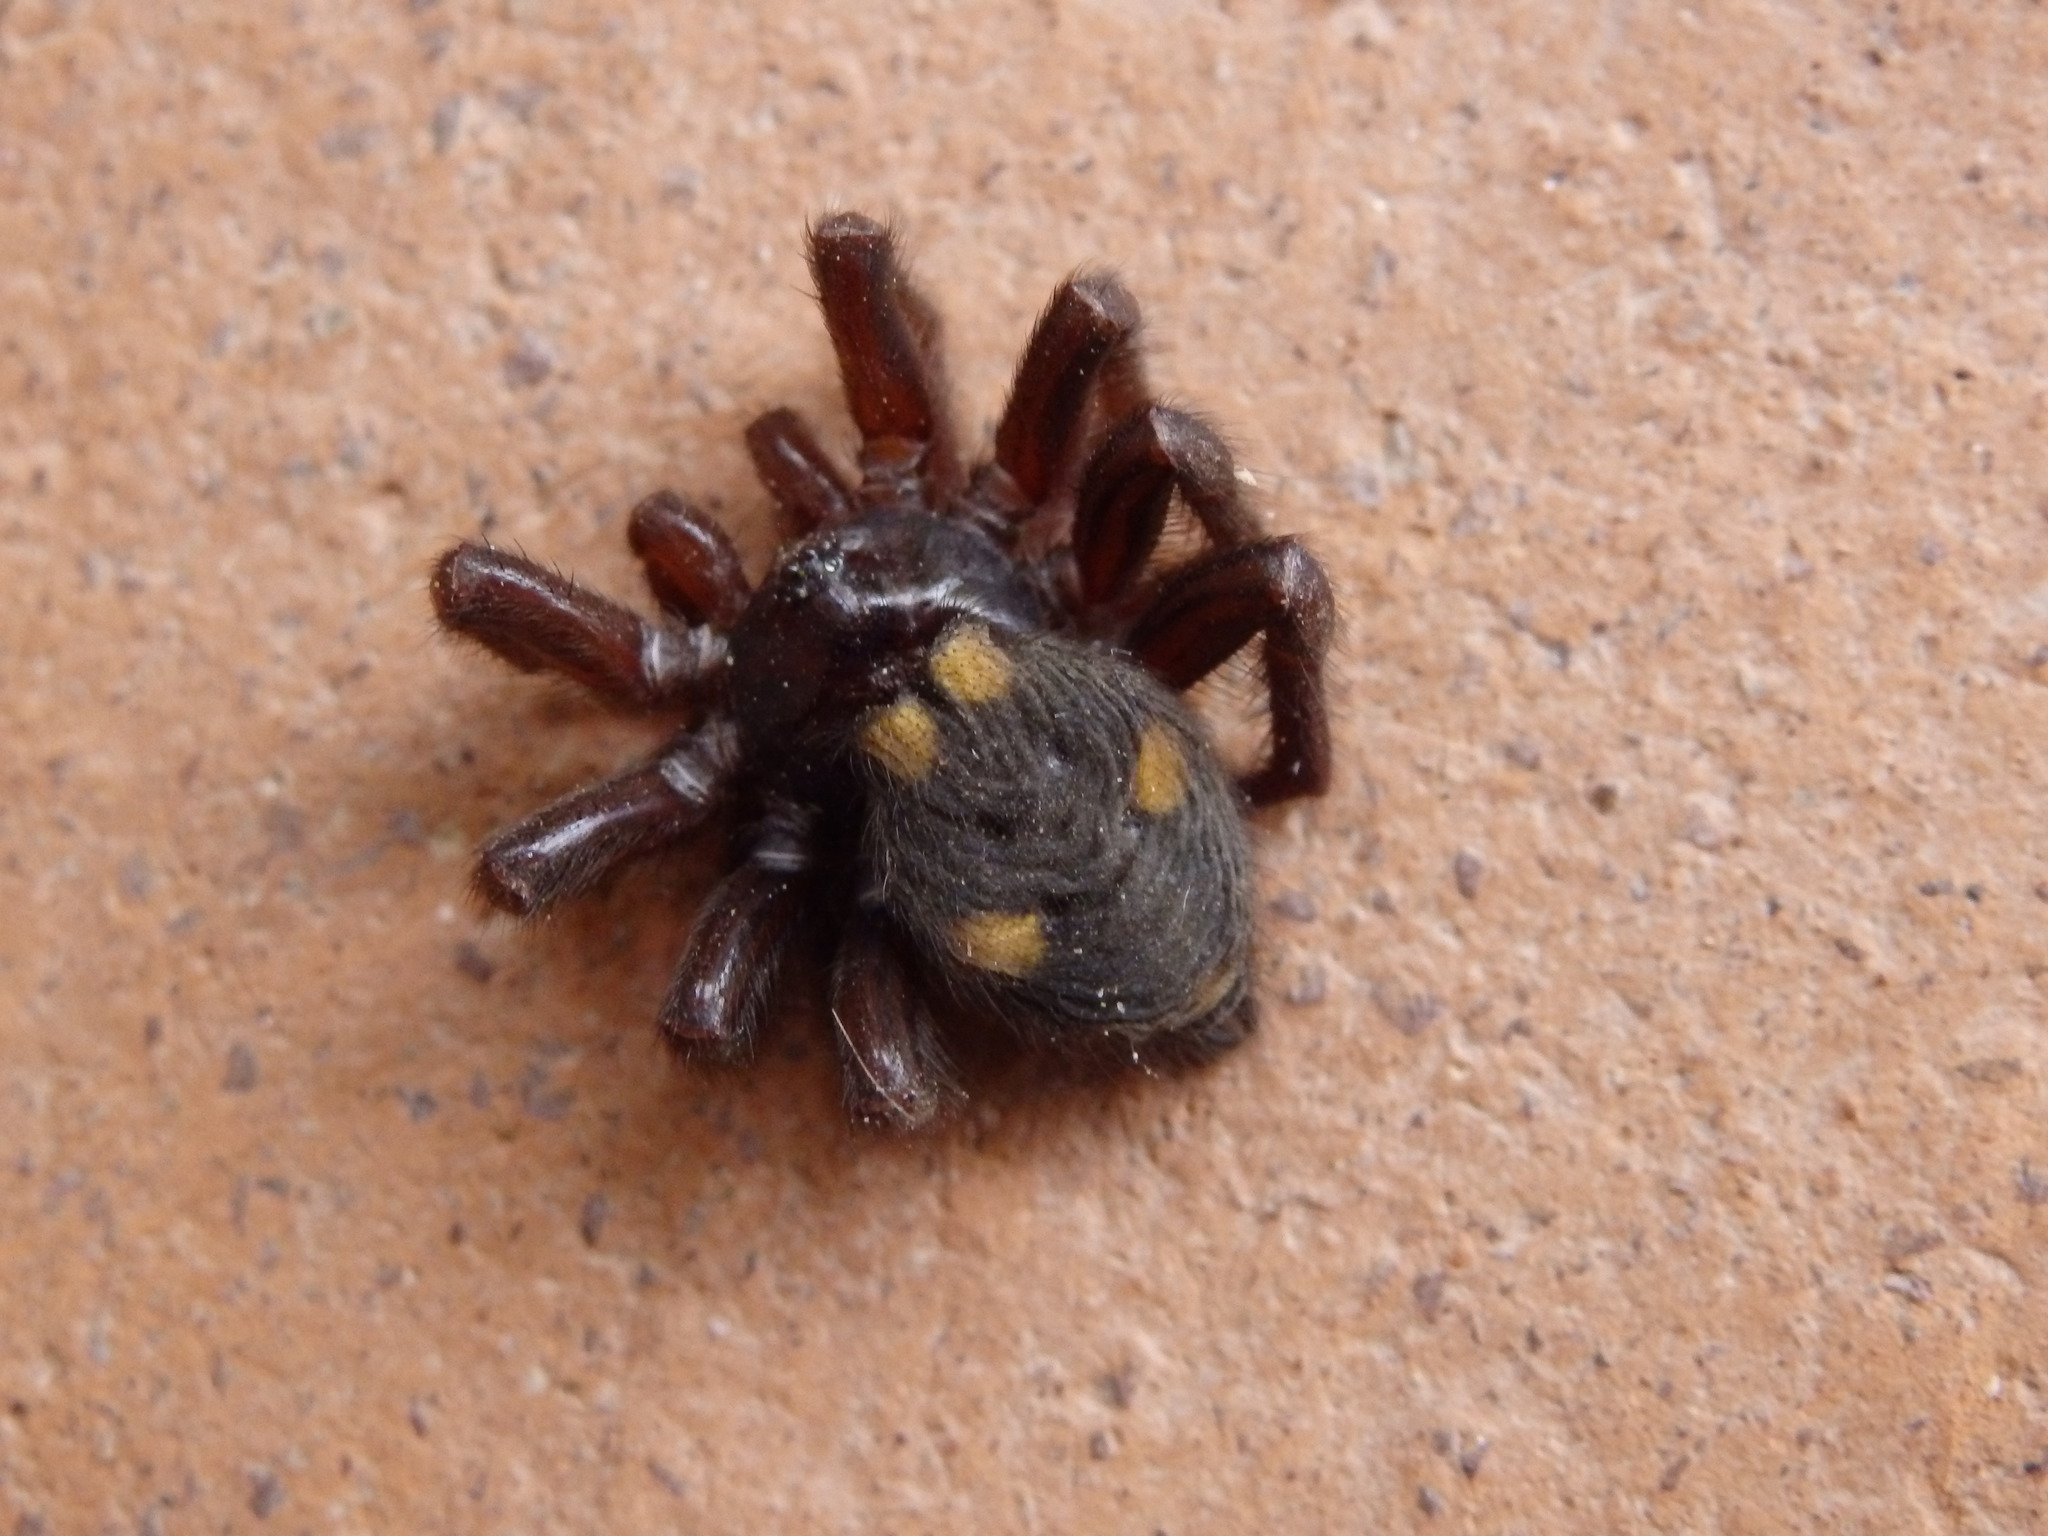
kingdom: Animalia
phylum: Arthropoda
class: Arachnida
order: Araneae
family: Oecobiidae
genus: Uroctea
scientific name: Uroctea durandi
